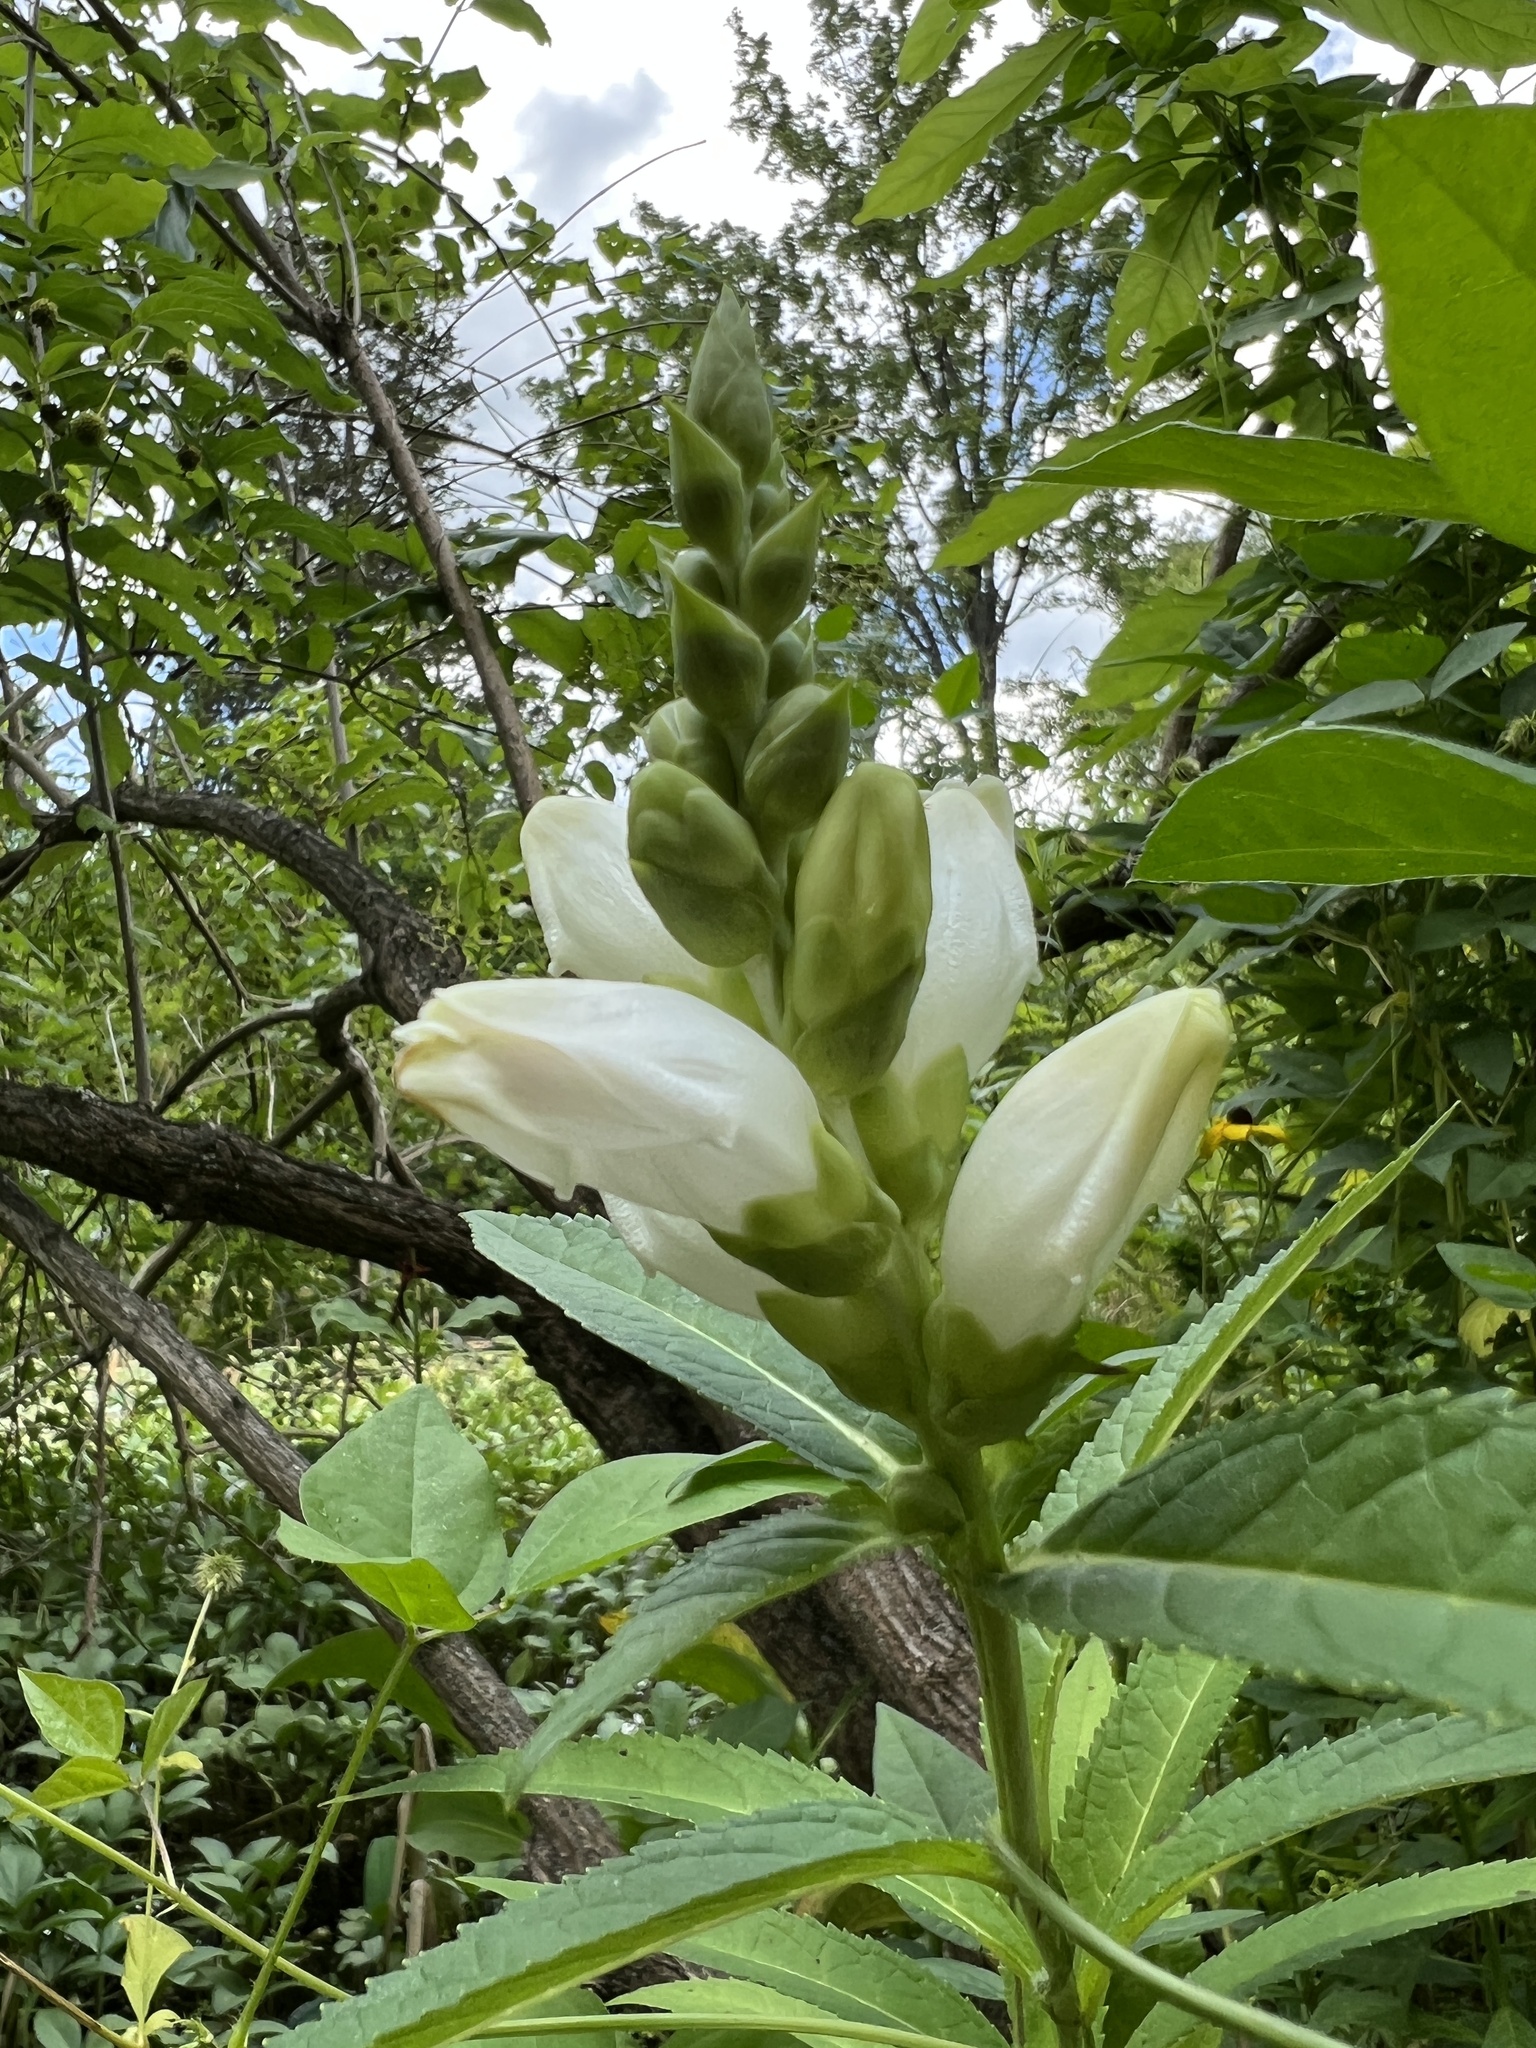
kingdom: Plantae
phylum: Tracheophyta
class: Magnoliopsida
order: Lamiales
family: Plantaginaceae
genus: Chelone
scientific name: Chelone glabra
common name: Snakehead
